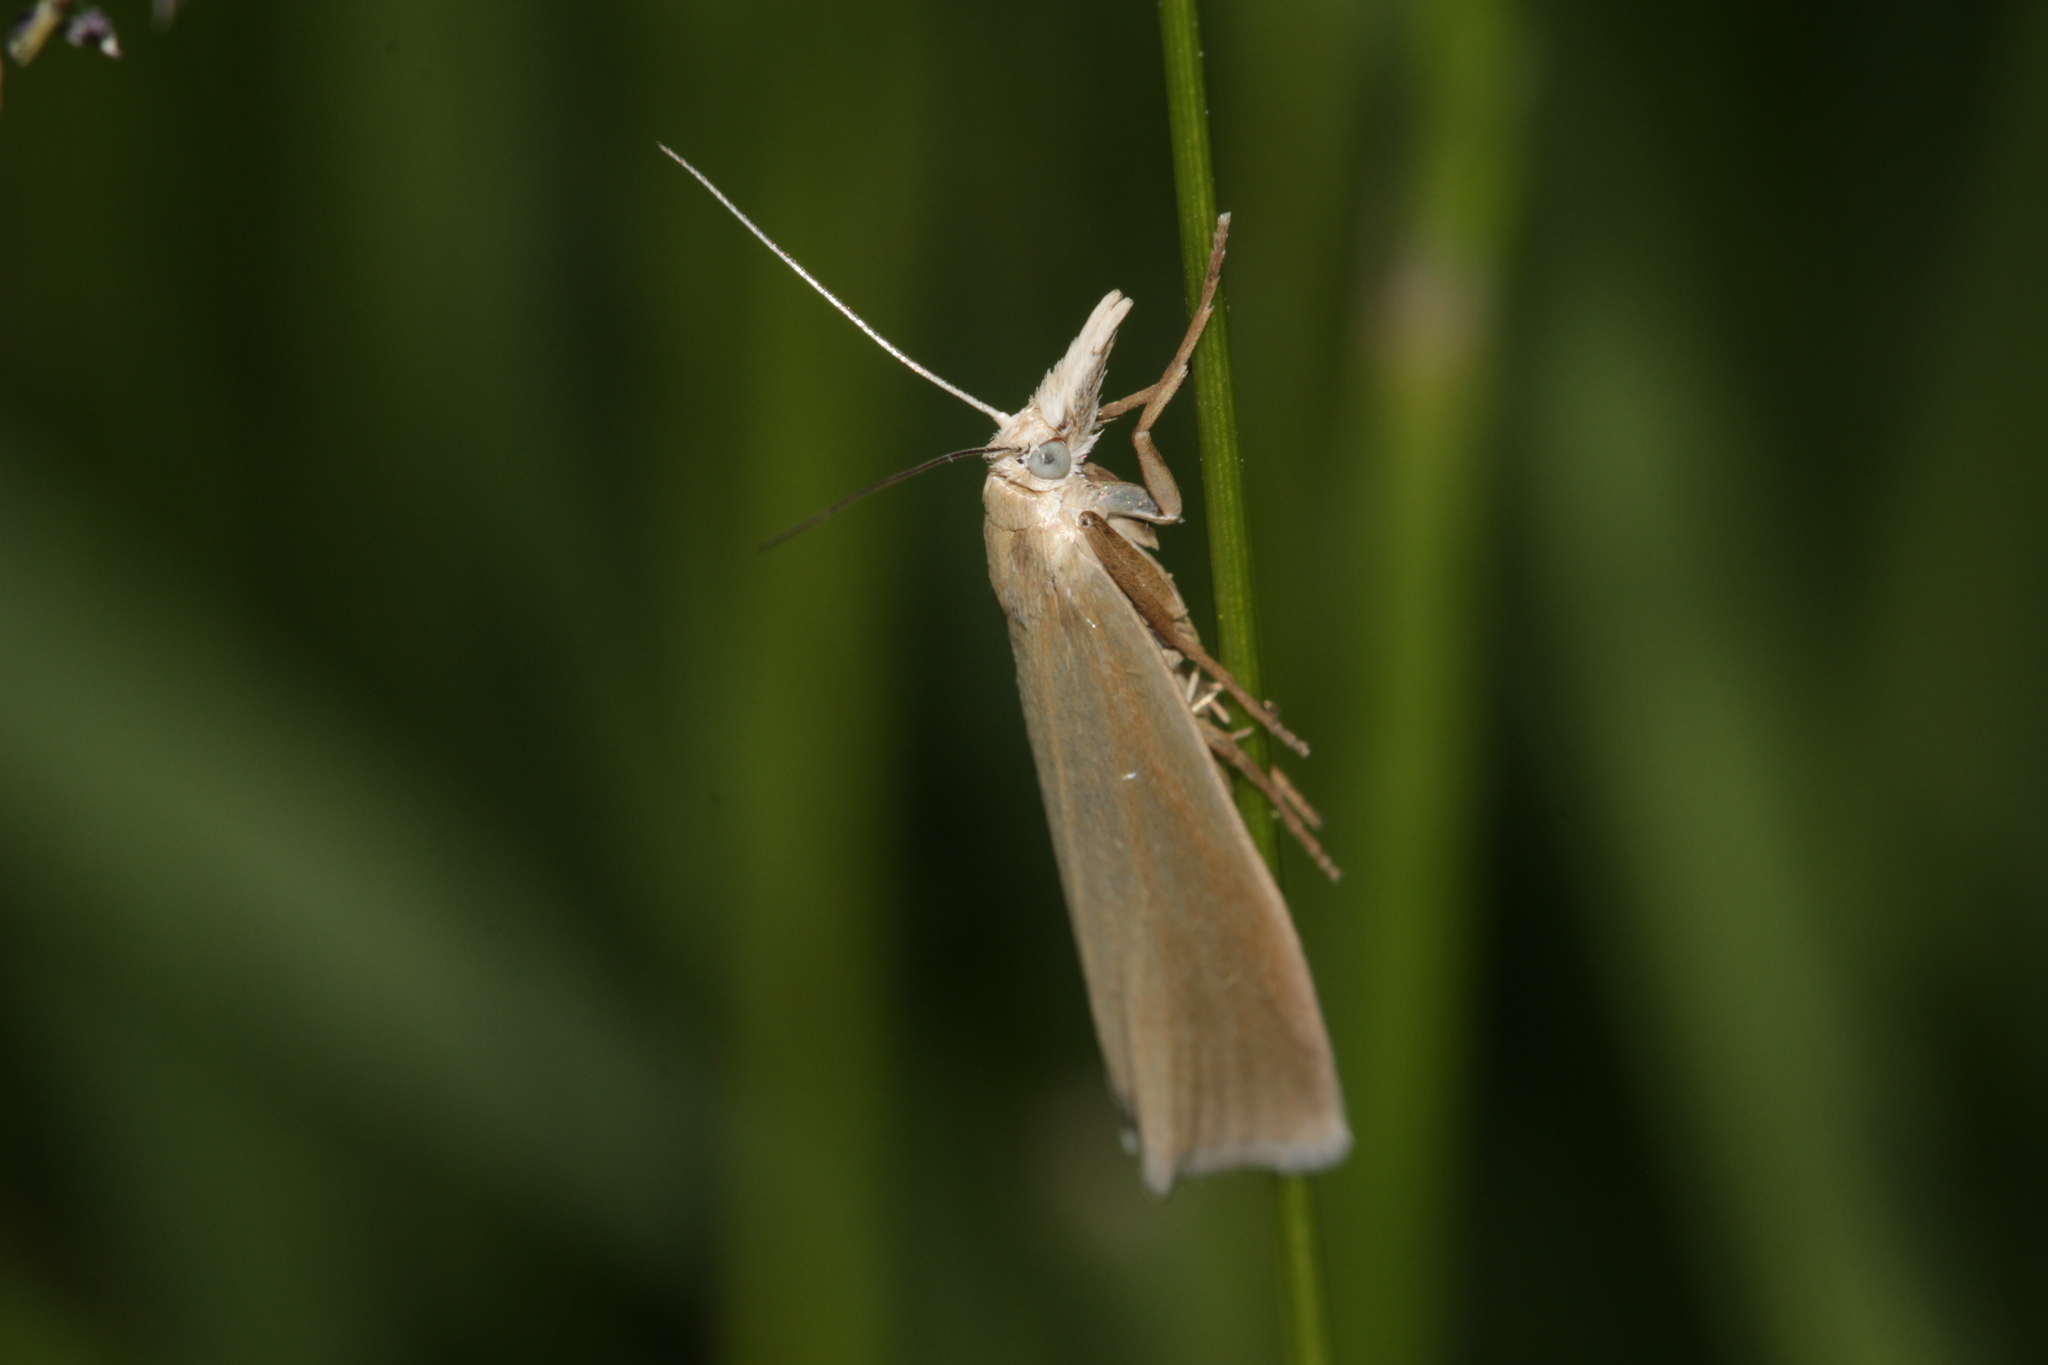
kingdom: Animalia
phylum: Arthropoda
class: Insecta
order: Lepidoptera
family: Crambidae
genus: Crambus
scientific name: Crambus perlellus
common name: Yellow satin veneer
